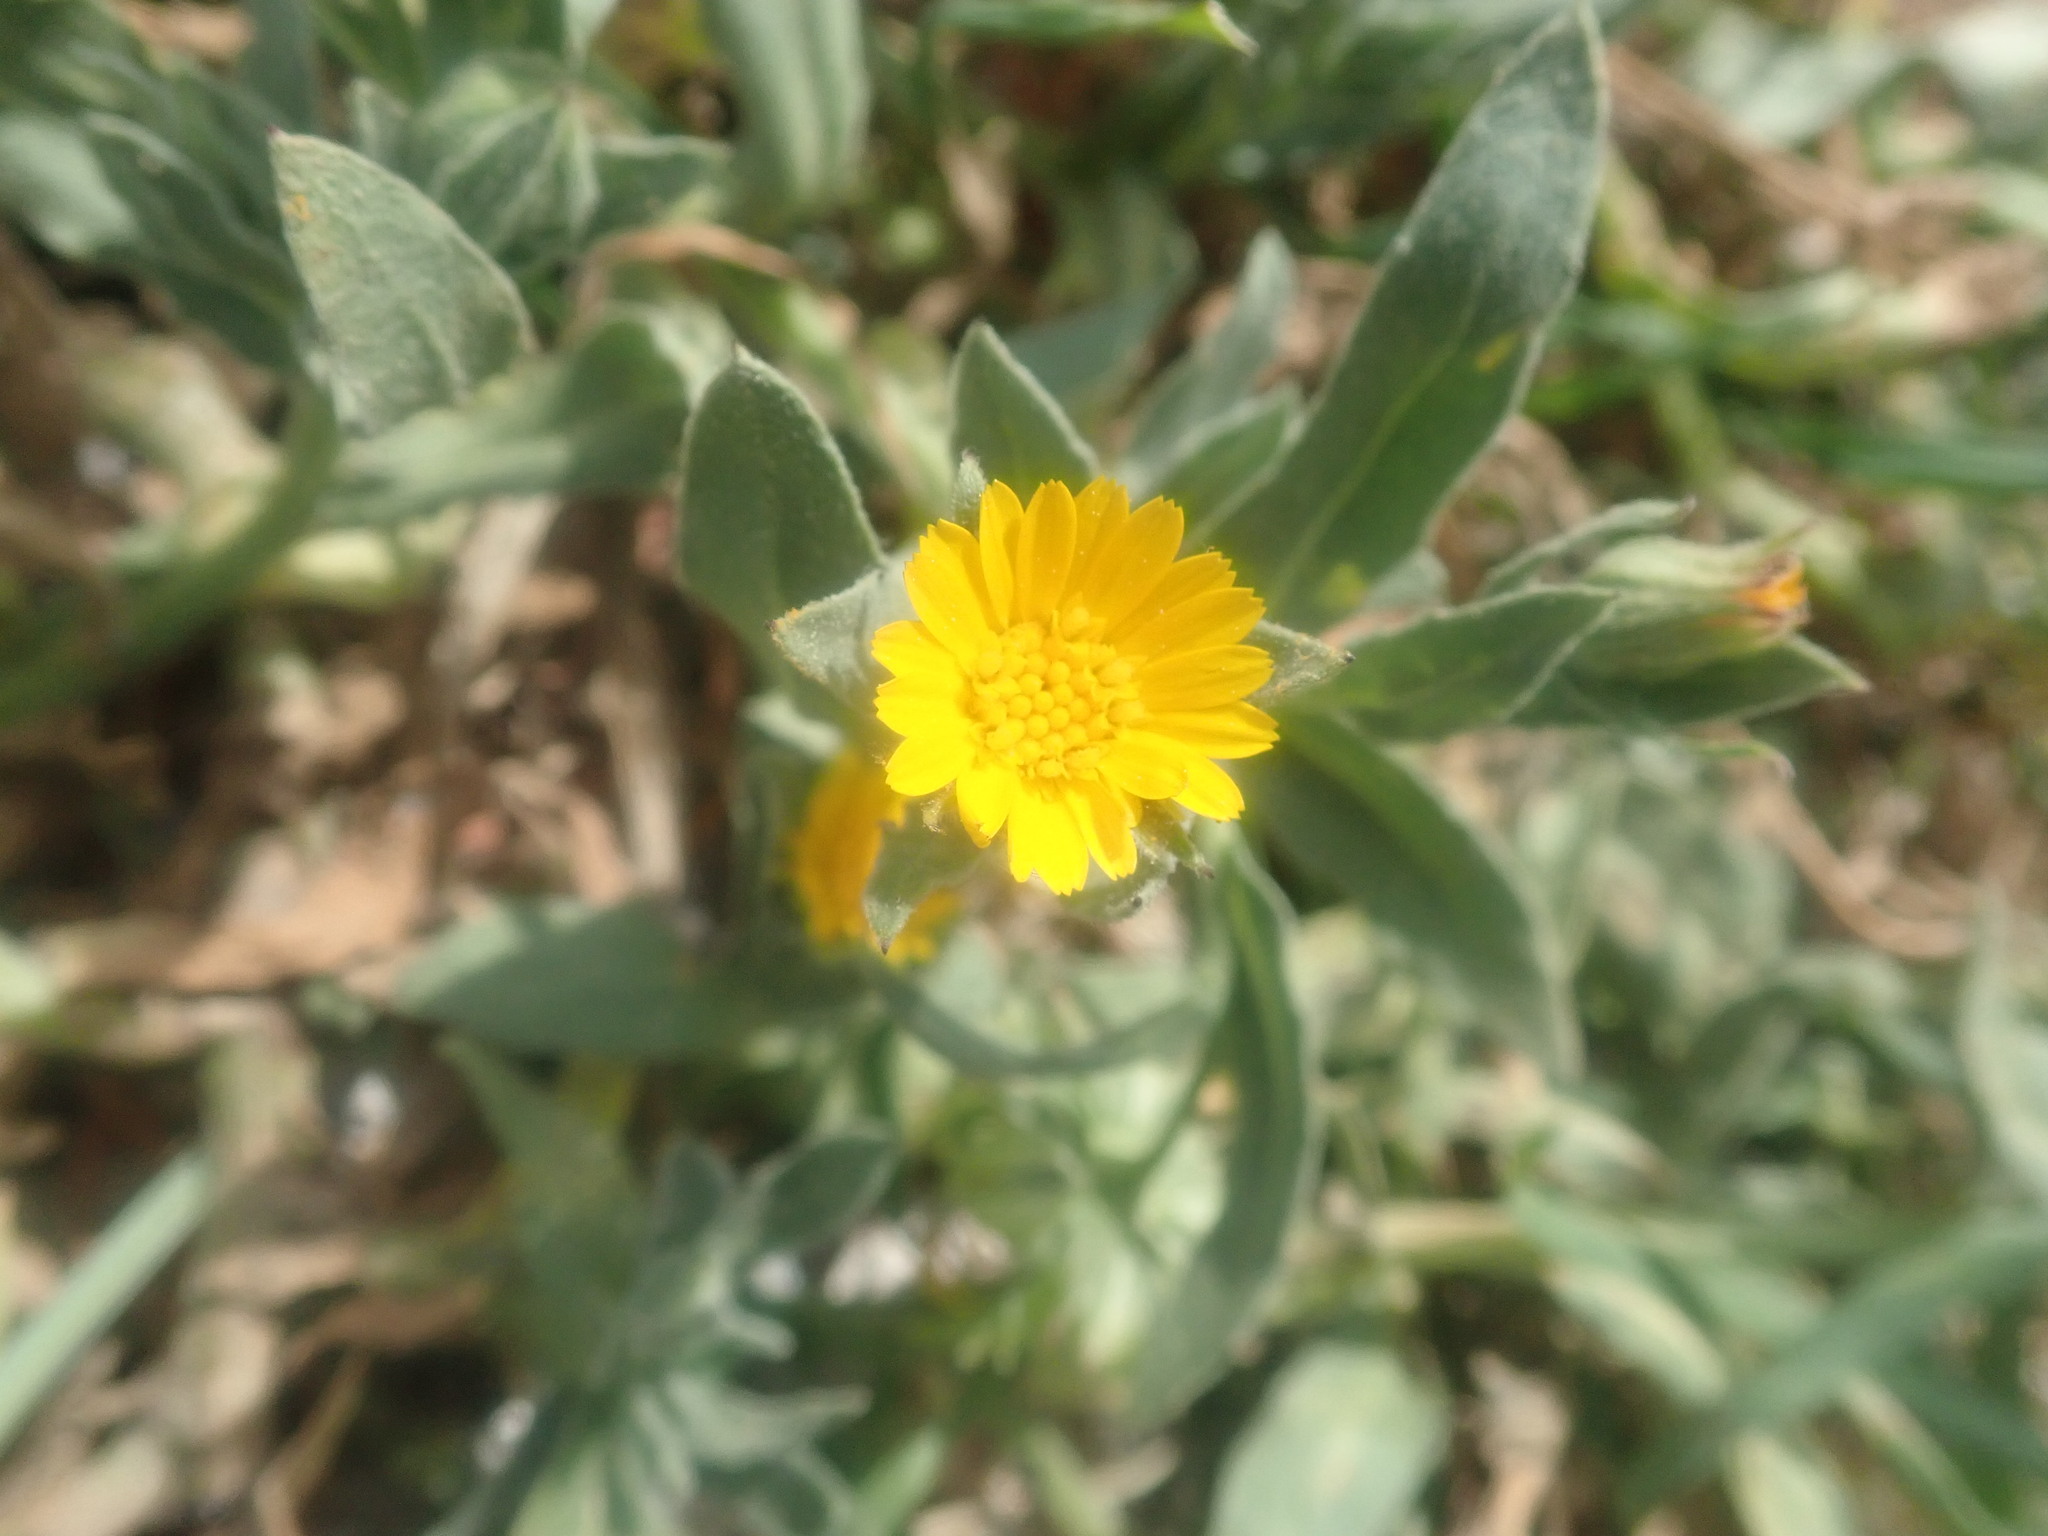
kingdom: Plantae
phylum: Tracheophyta
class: Magnoliopsida
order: Asterales
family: Asteraceae
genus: Calendula
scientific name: Calendula arvensis
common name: Field marigold
